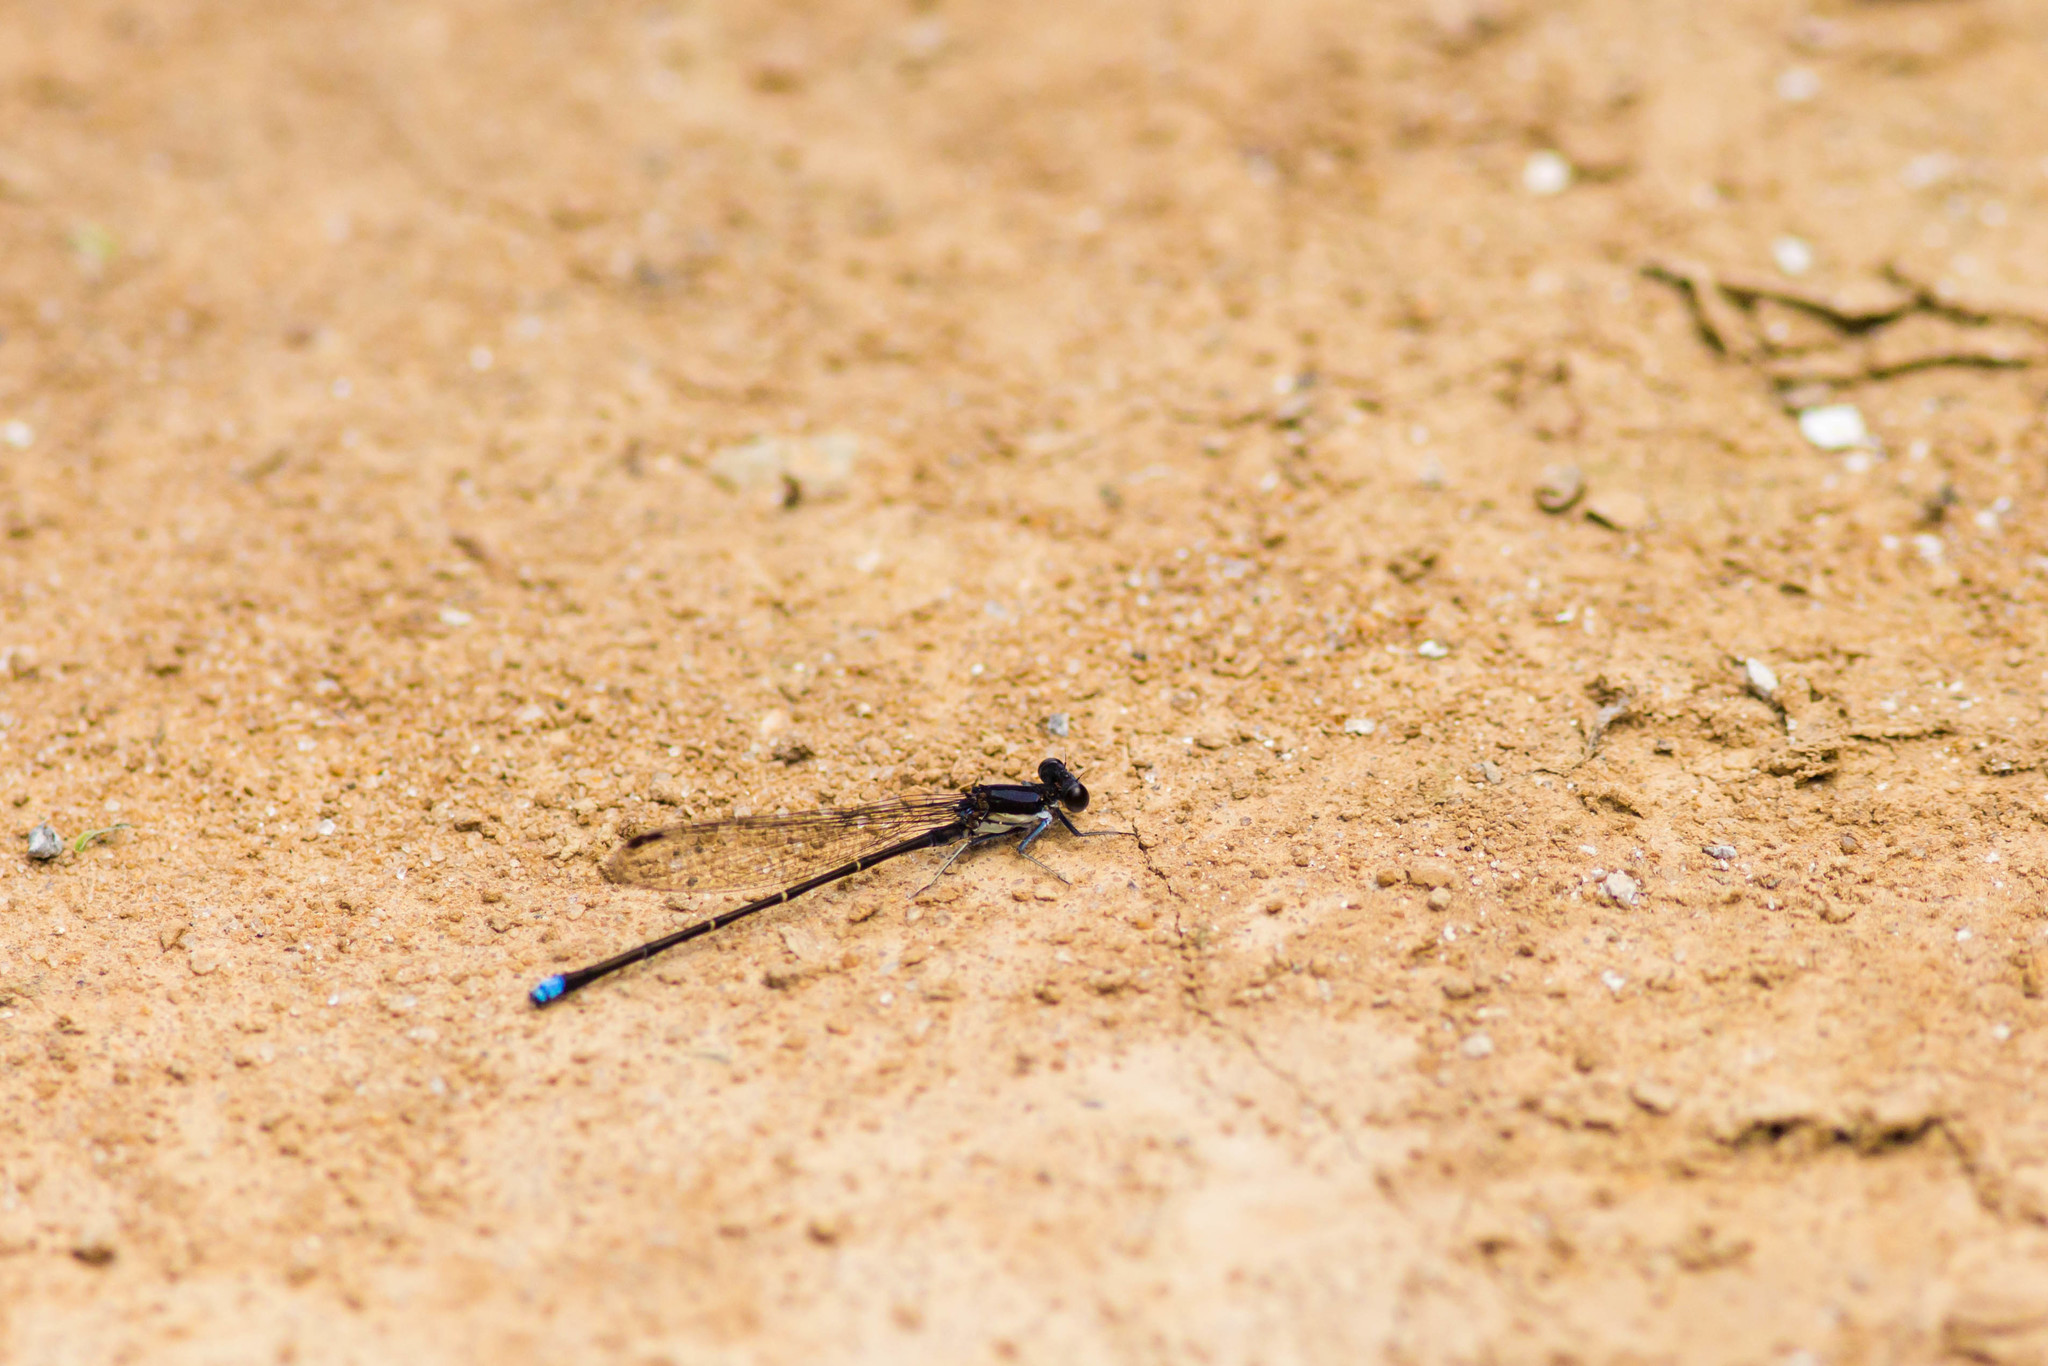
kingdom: Animalia
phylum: Arthropoda
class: Insecta
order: Odonata
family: Coenagrionidae
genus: Argia
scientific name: Argia tibialis
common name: Blue-tipped dancer
